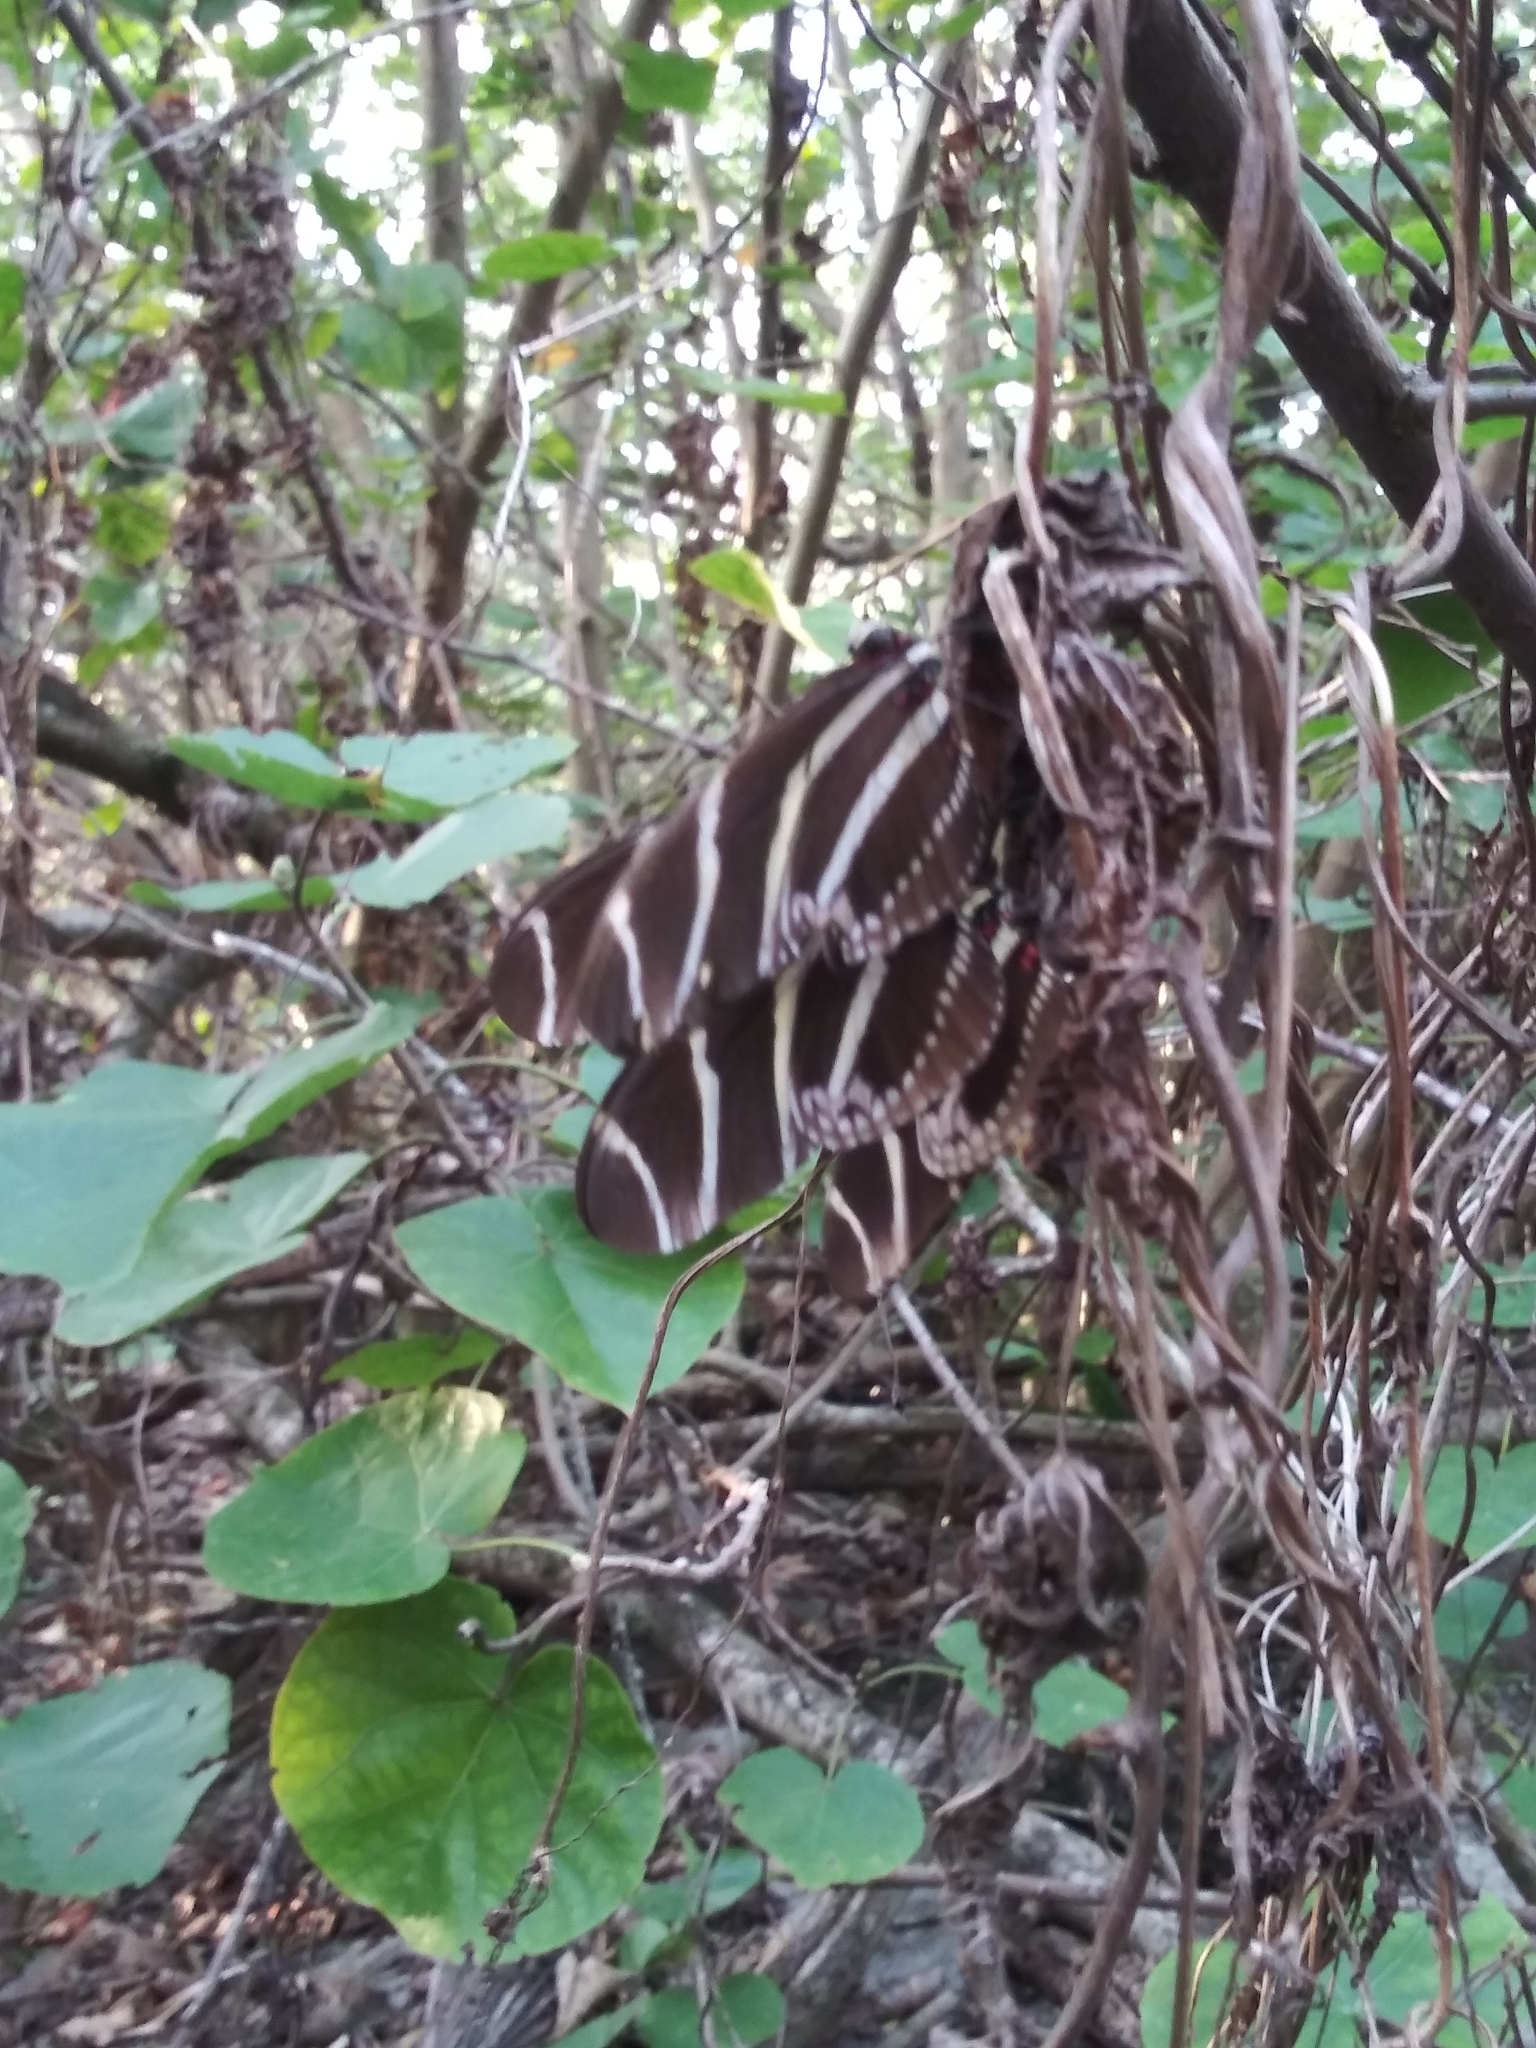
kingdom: Animalia
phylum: Arthropoda
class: Insecta
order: Lepidoptera
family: Nymphalidae
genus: Heliconius
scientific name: Heliconius charithonia
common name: Zebra long wing
